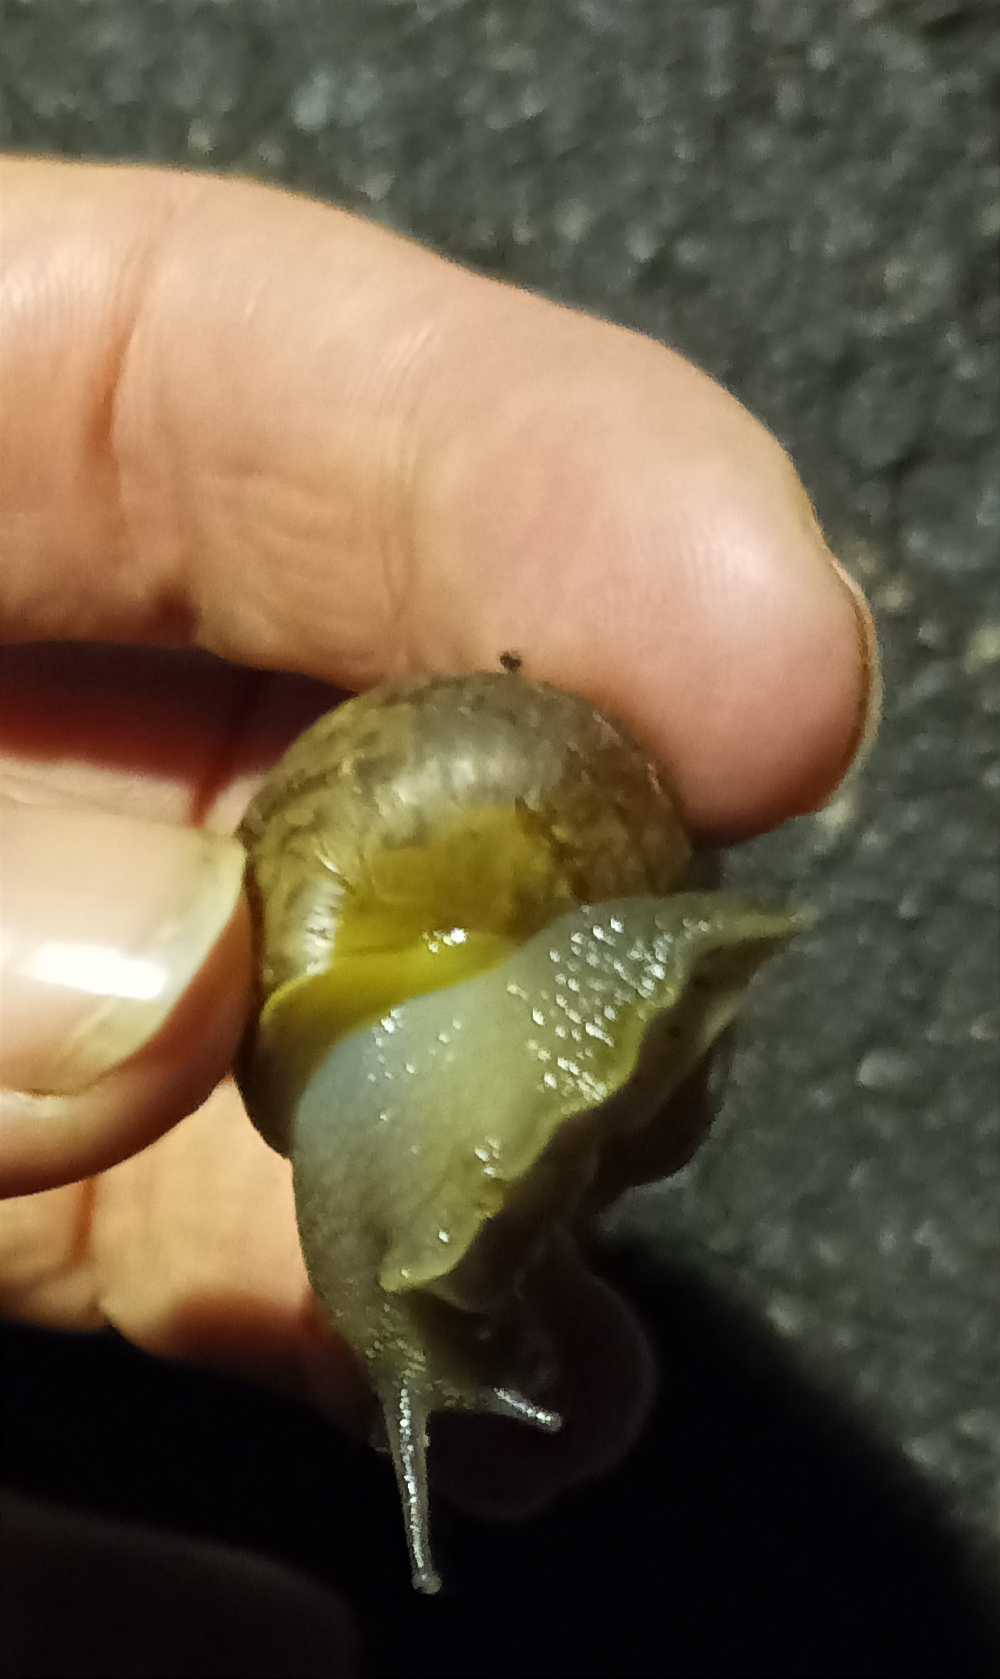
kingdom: Animalia
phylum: Mollusca
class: Gastropoda
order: Stylommatophora
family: Helicidae
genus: Cornu
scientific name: Cornu aspersum
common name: Brown garden snail
